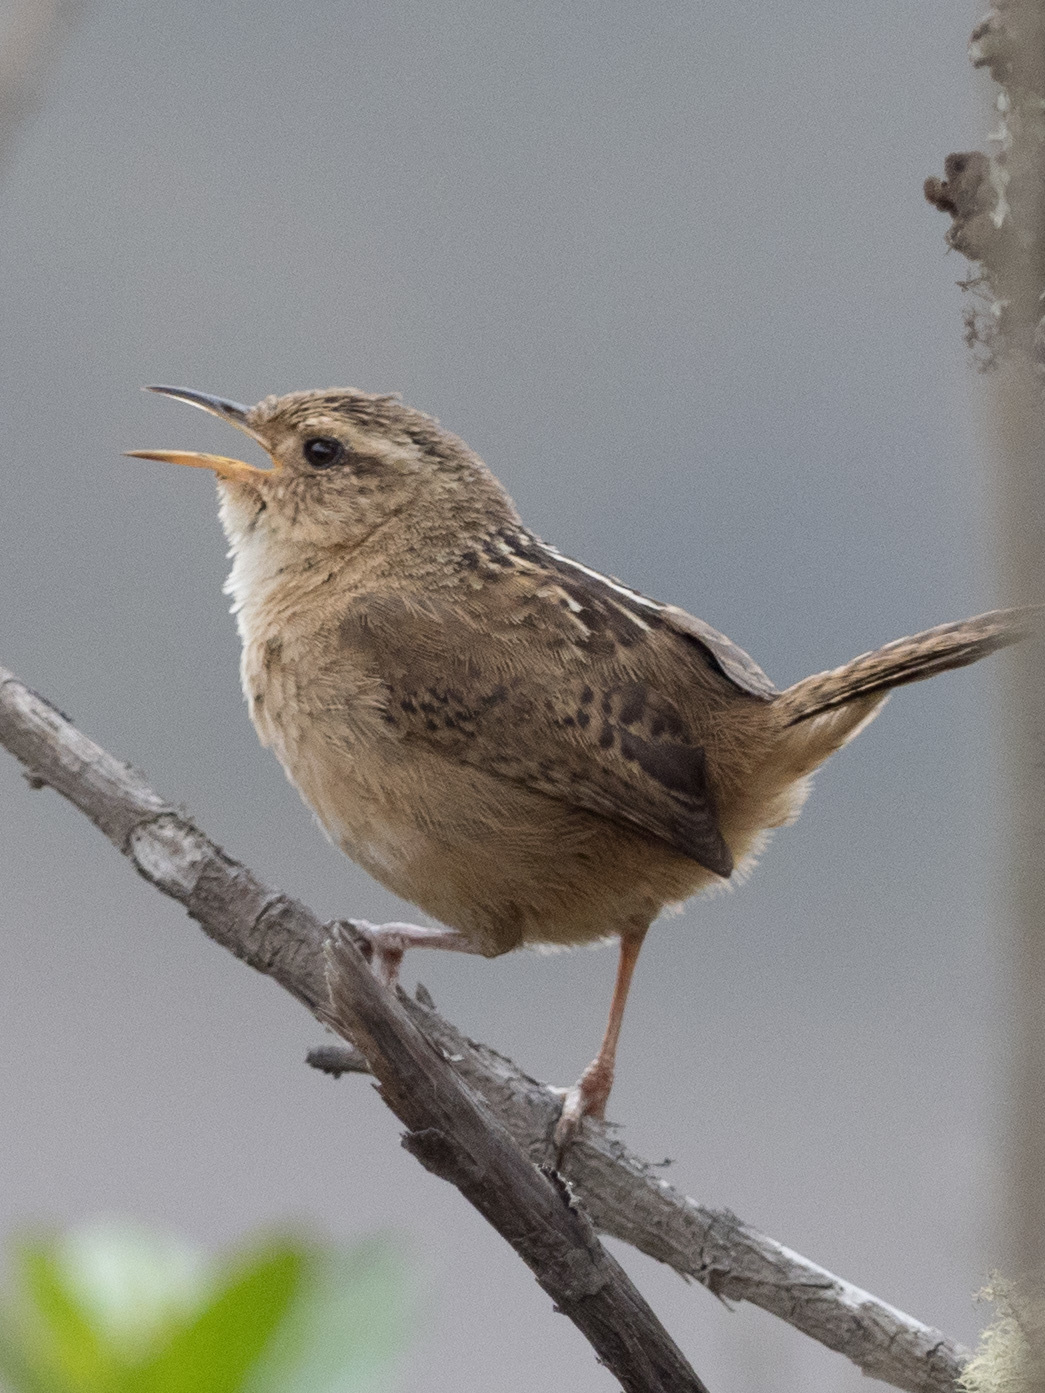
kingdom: Animalia
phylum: Chordata
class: Aves
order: Passeriformes
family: Troglodytidae
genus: Troglodytes
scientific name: Troglodytes solstitialis
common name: Mountain wren
